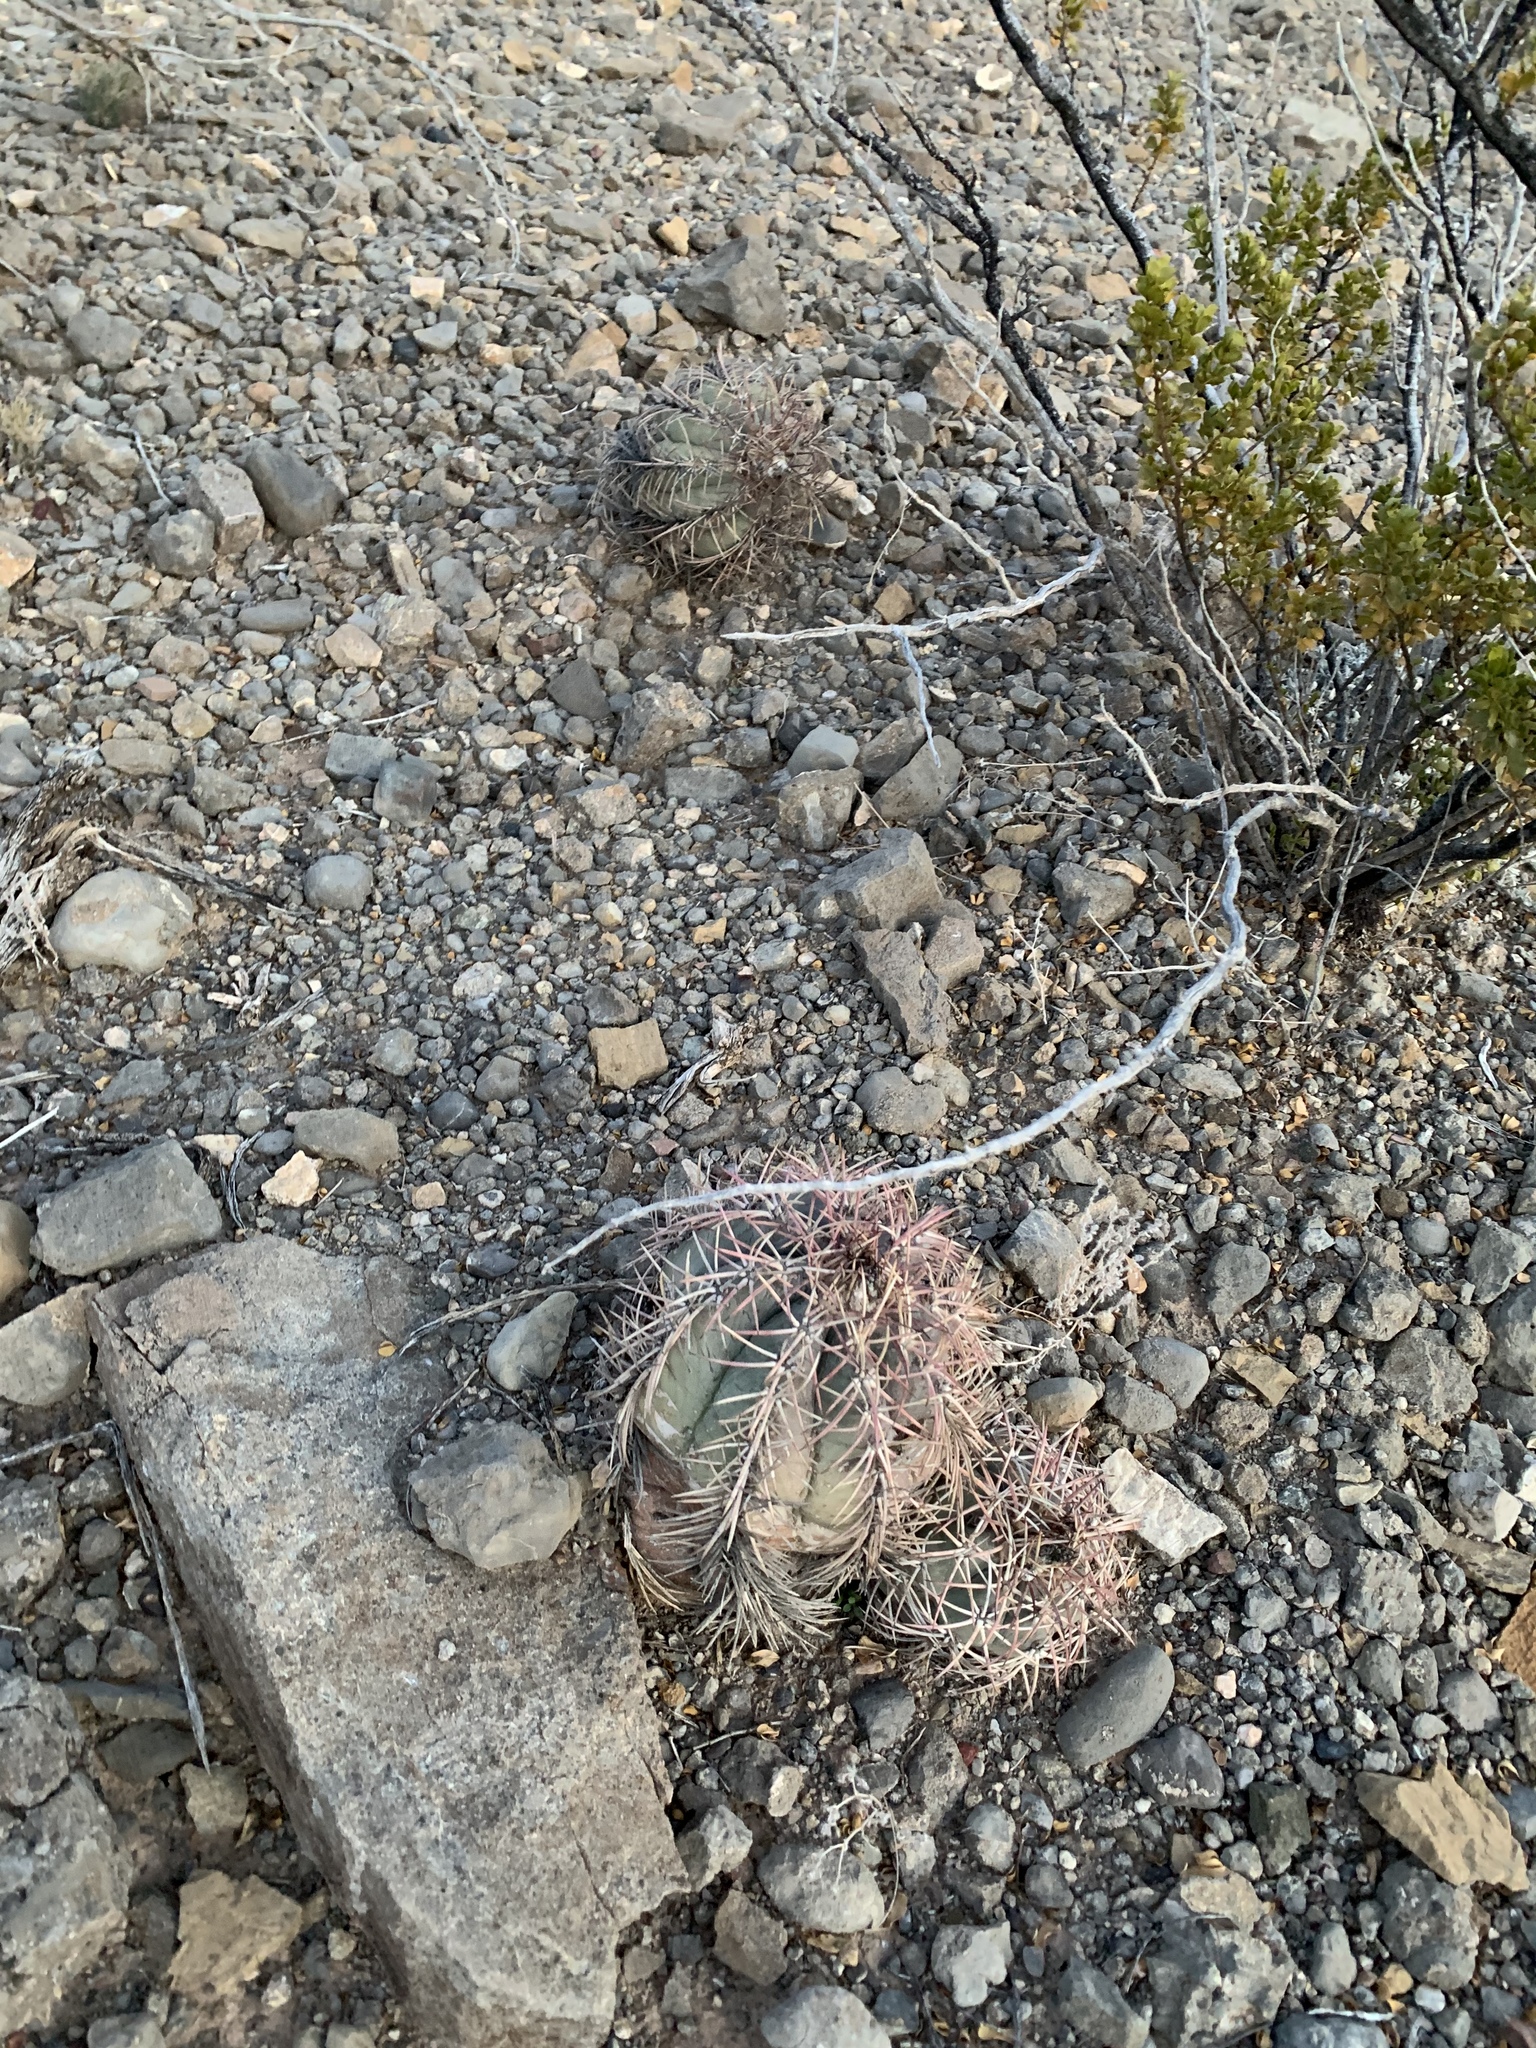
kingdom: Plantae
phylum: Tracheophyta
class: Magnoliopsida
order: Caryophyllales
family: Cactaceae
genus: Echinocactus
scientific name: Echinocactus horizonthalonius
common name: Devilshead
